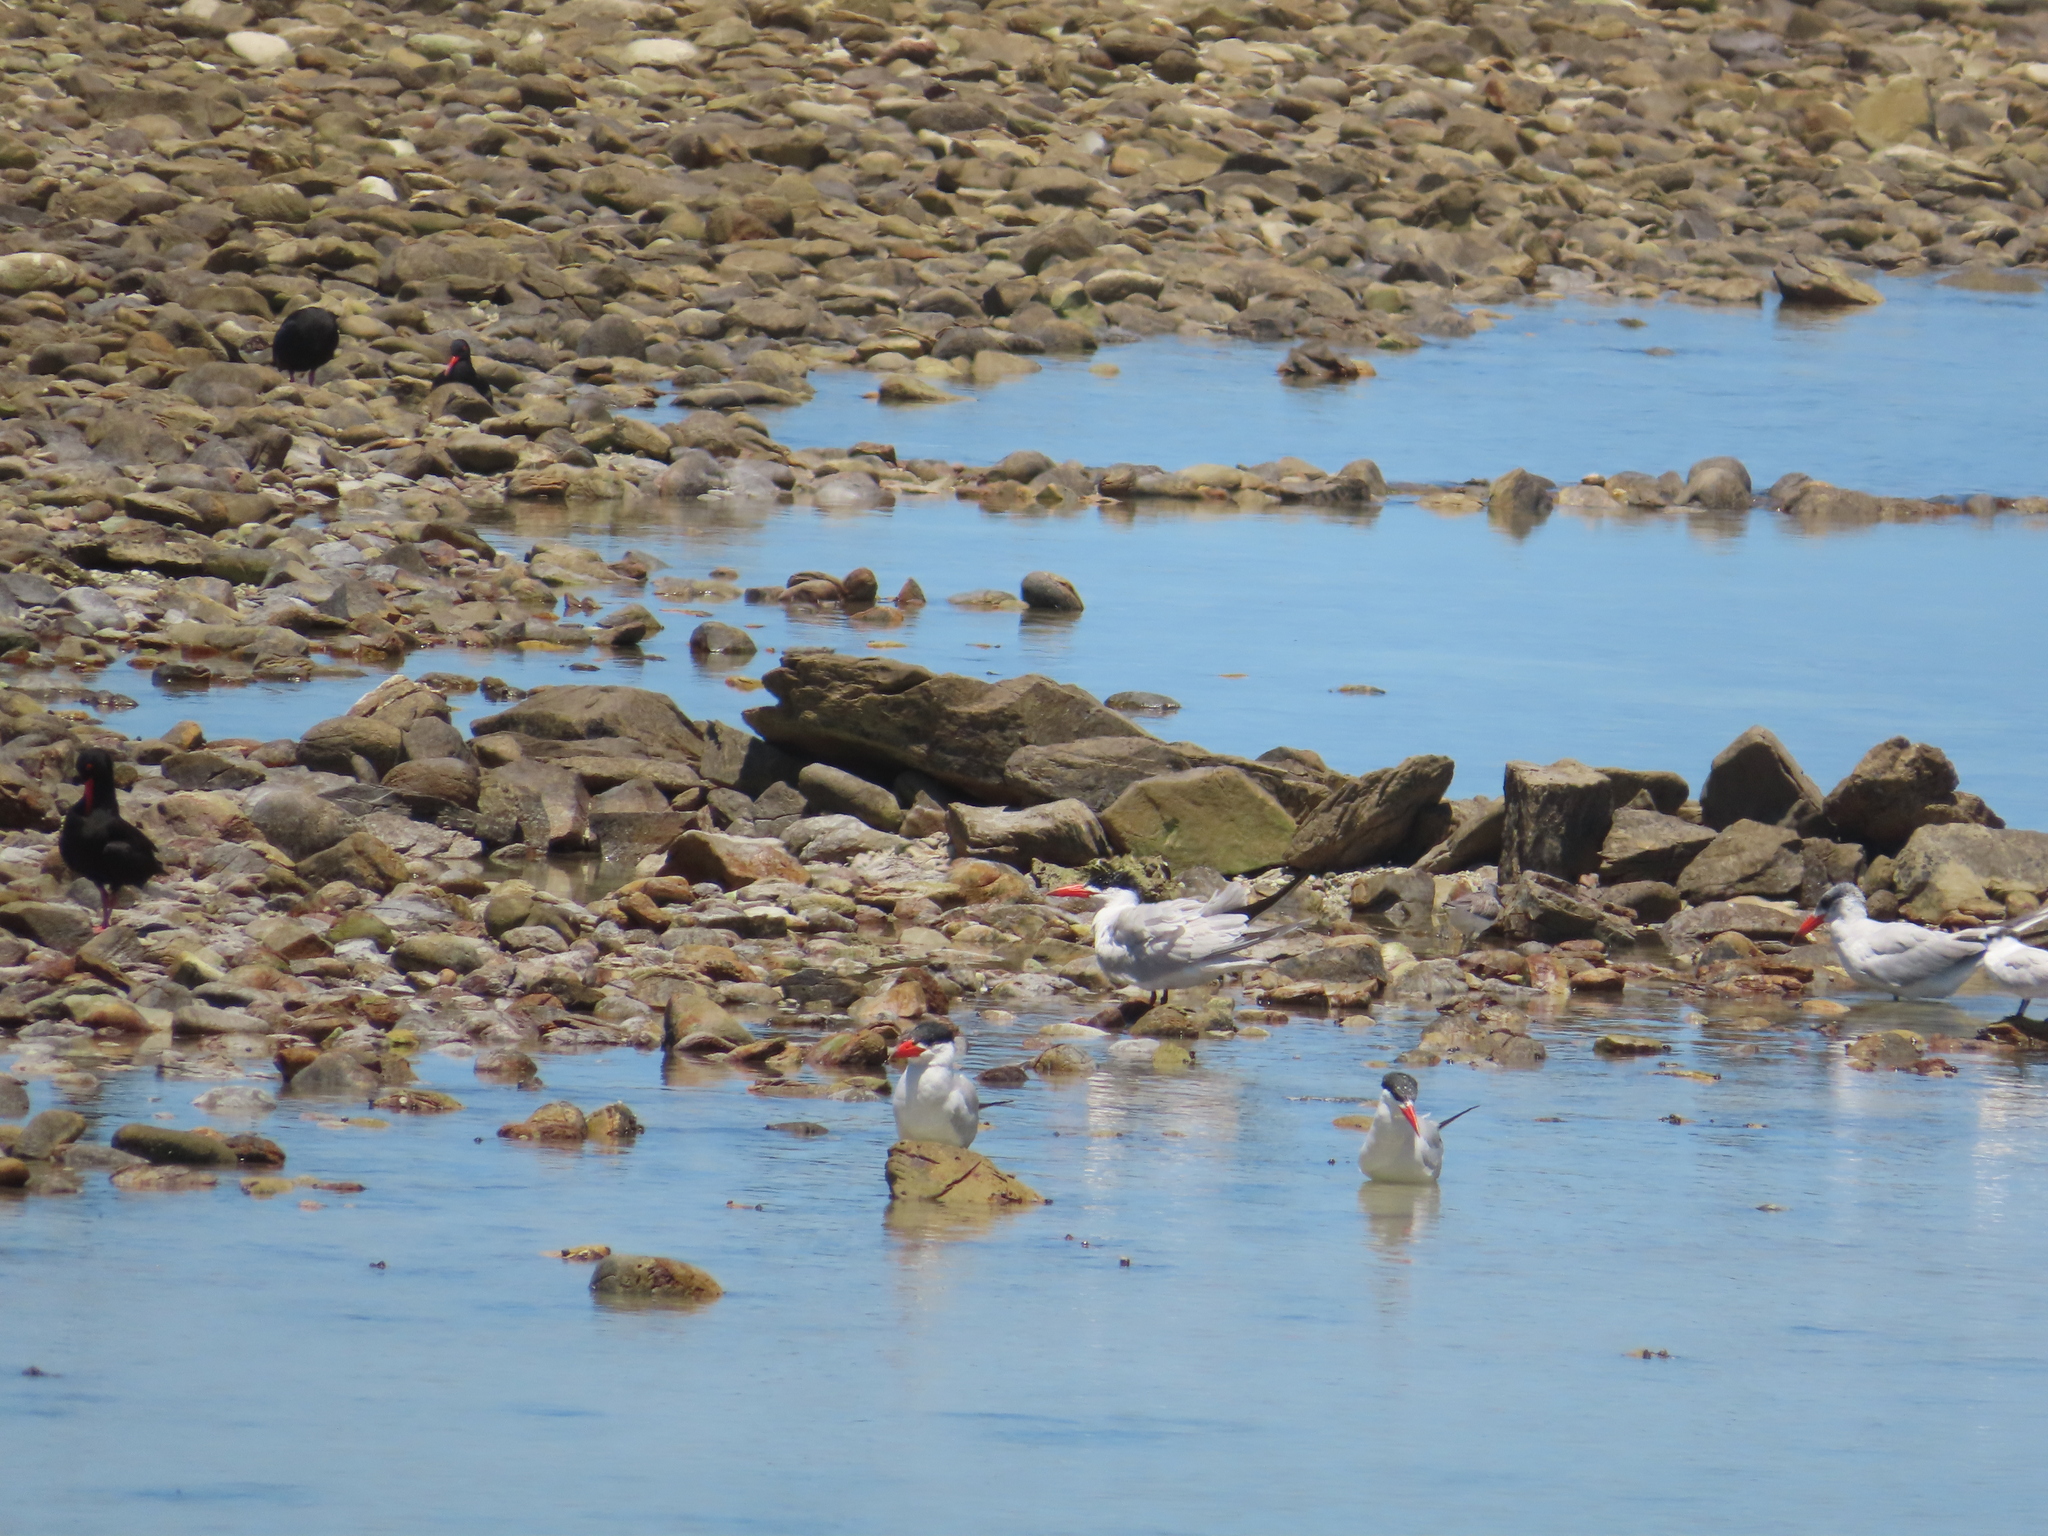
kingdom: Animalia
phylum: Chordata
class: Aves
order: Charadriiformes
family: Laridae
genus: Hydroprogne
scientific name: Hydroprogne caspia
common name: Caspian tern
